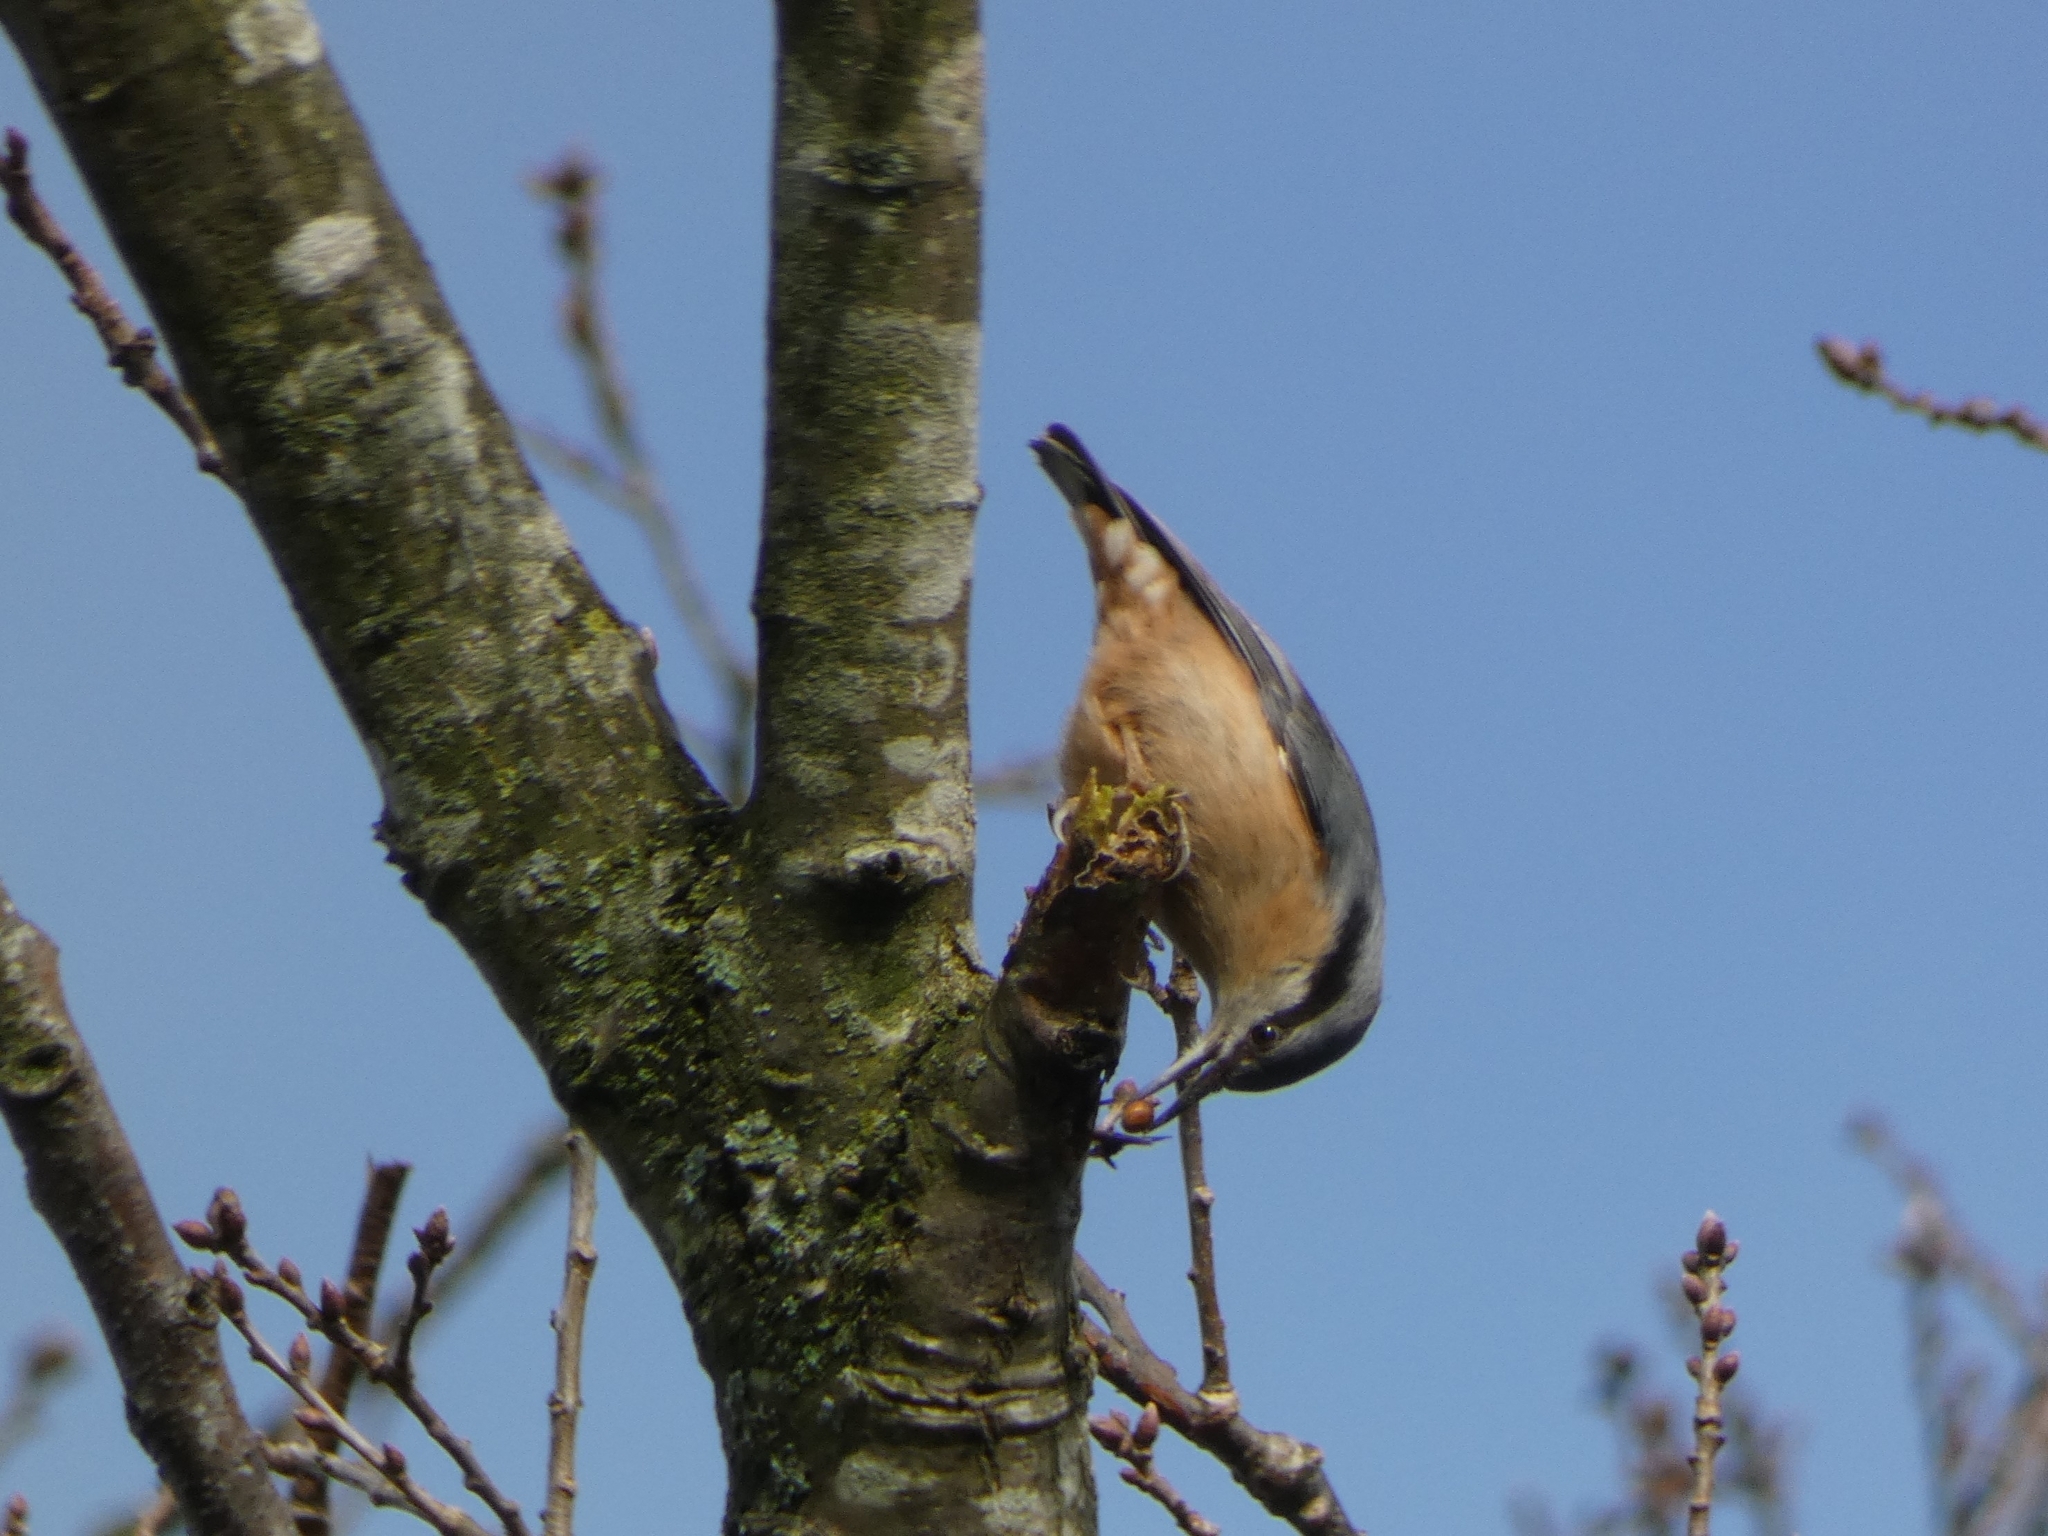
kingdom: Animalia
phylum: Chordata
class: Aves
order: Passeriformes
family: Sittidae
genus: Sitta
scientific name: Sitta europaea
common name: Eurasian nuthatch
